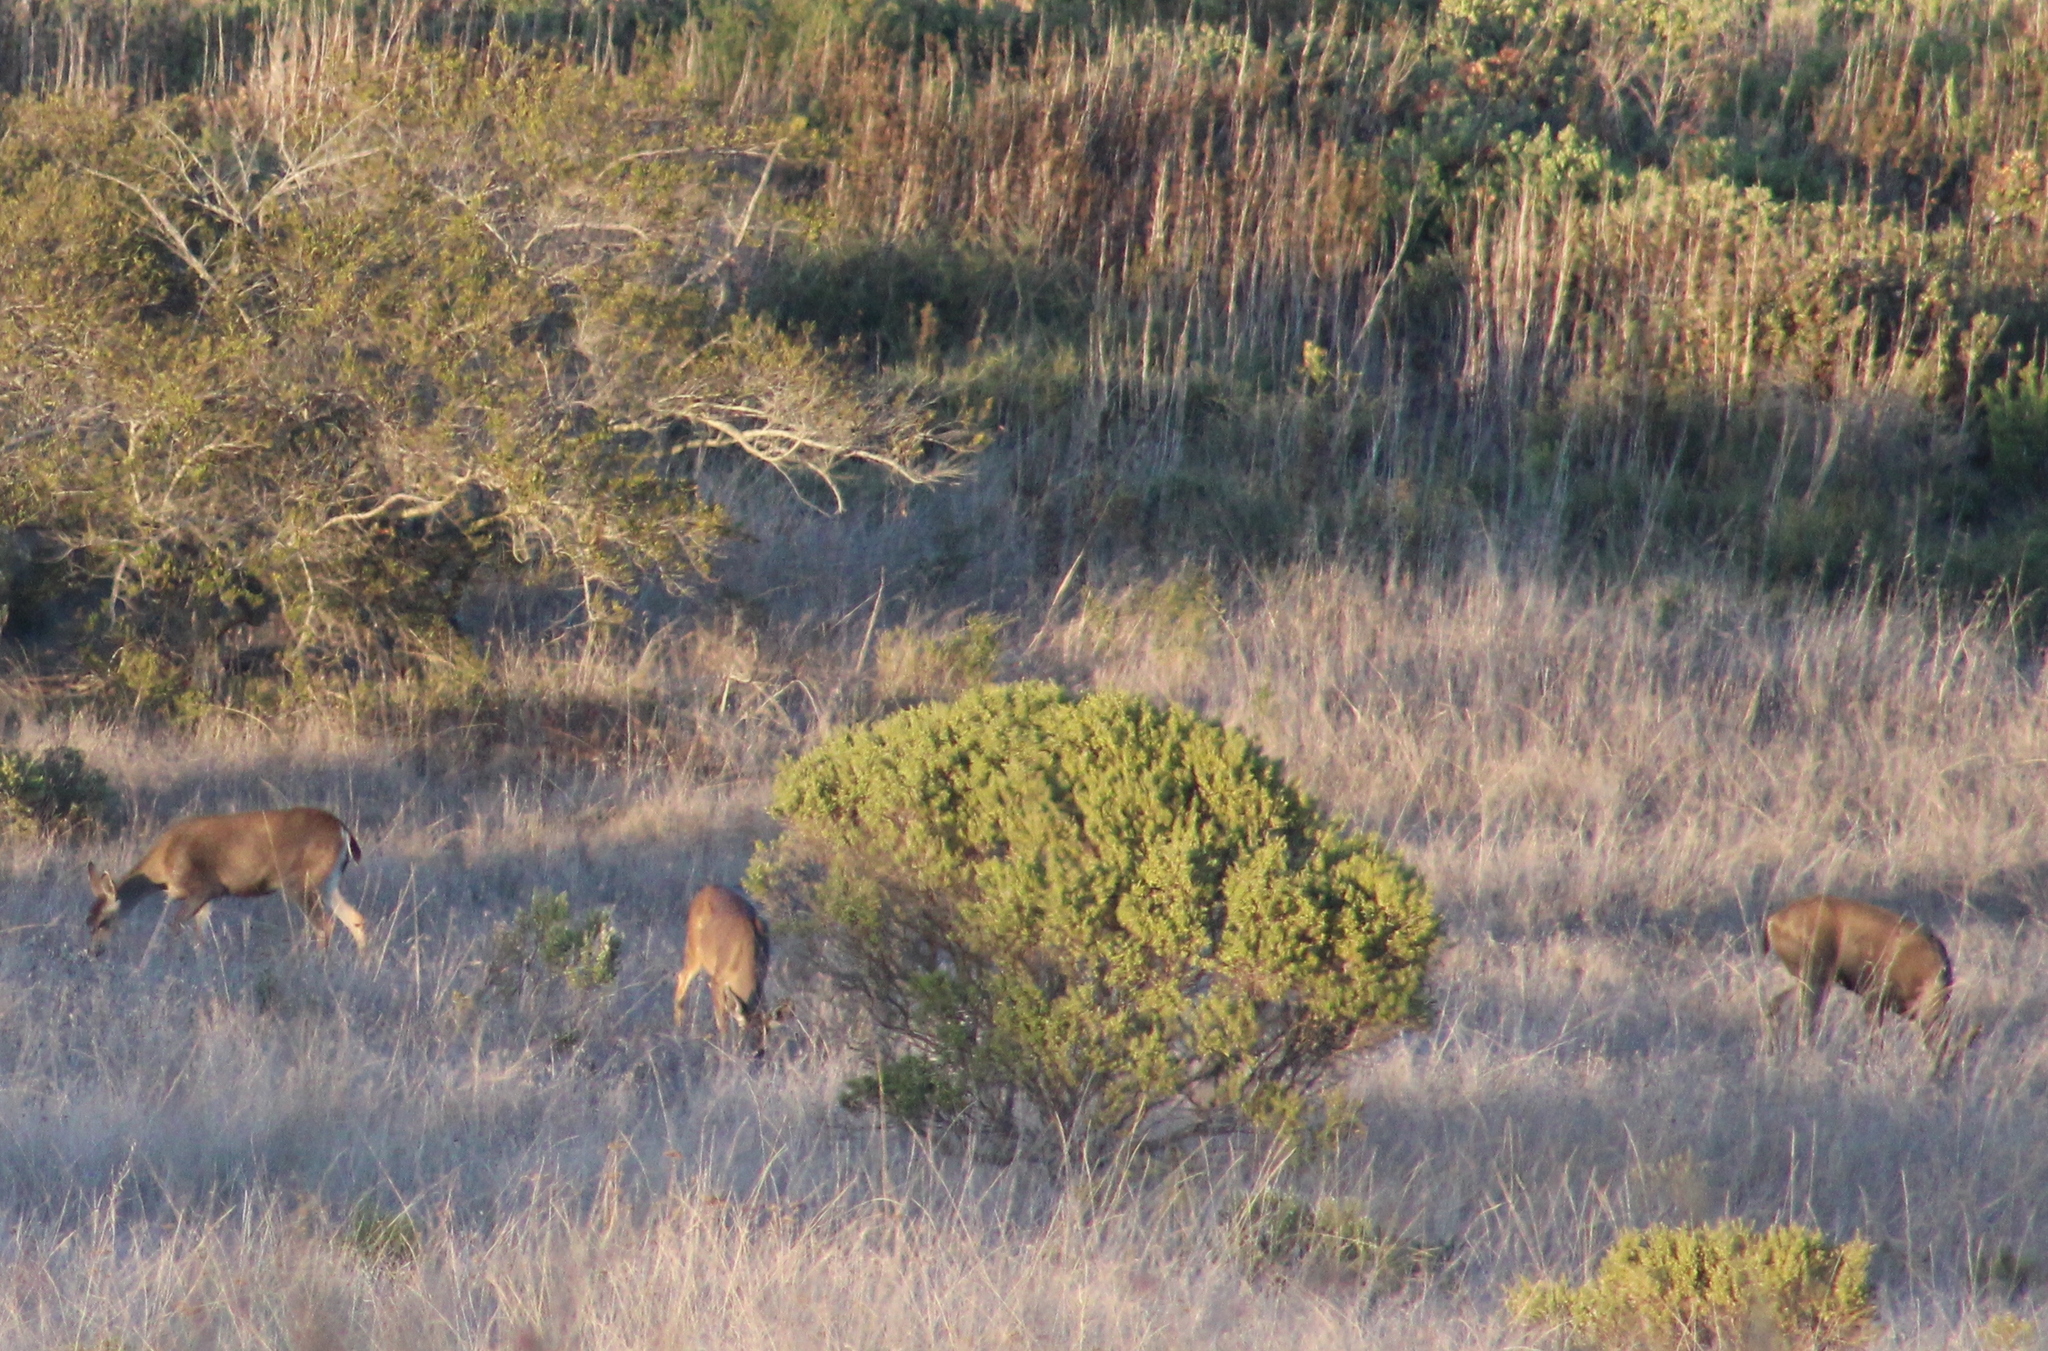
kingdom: Animalia
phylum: Chordata
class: Mammalia
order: Artiodactyla
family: Cervidae
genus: Odocoileus
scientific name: Odocoileus hemionus
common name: Mule deer
